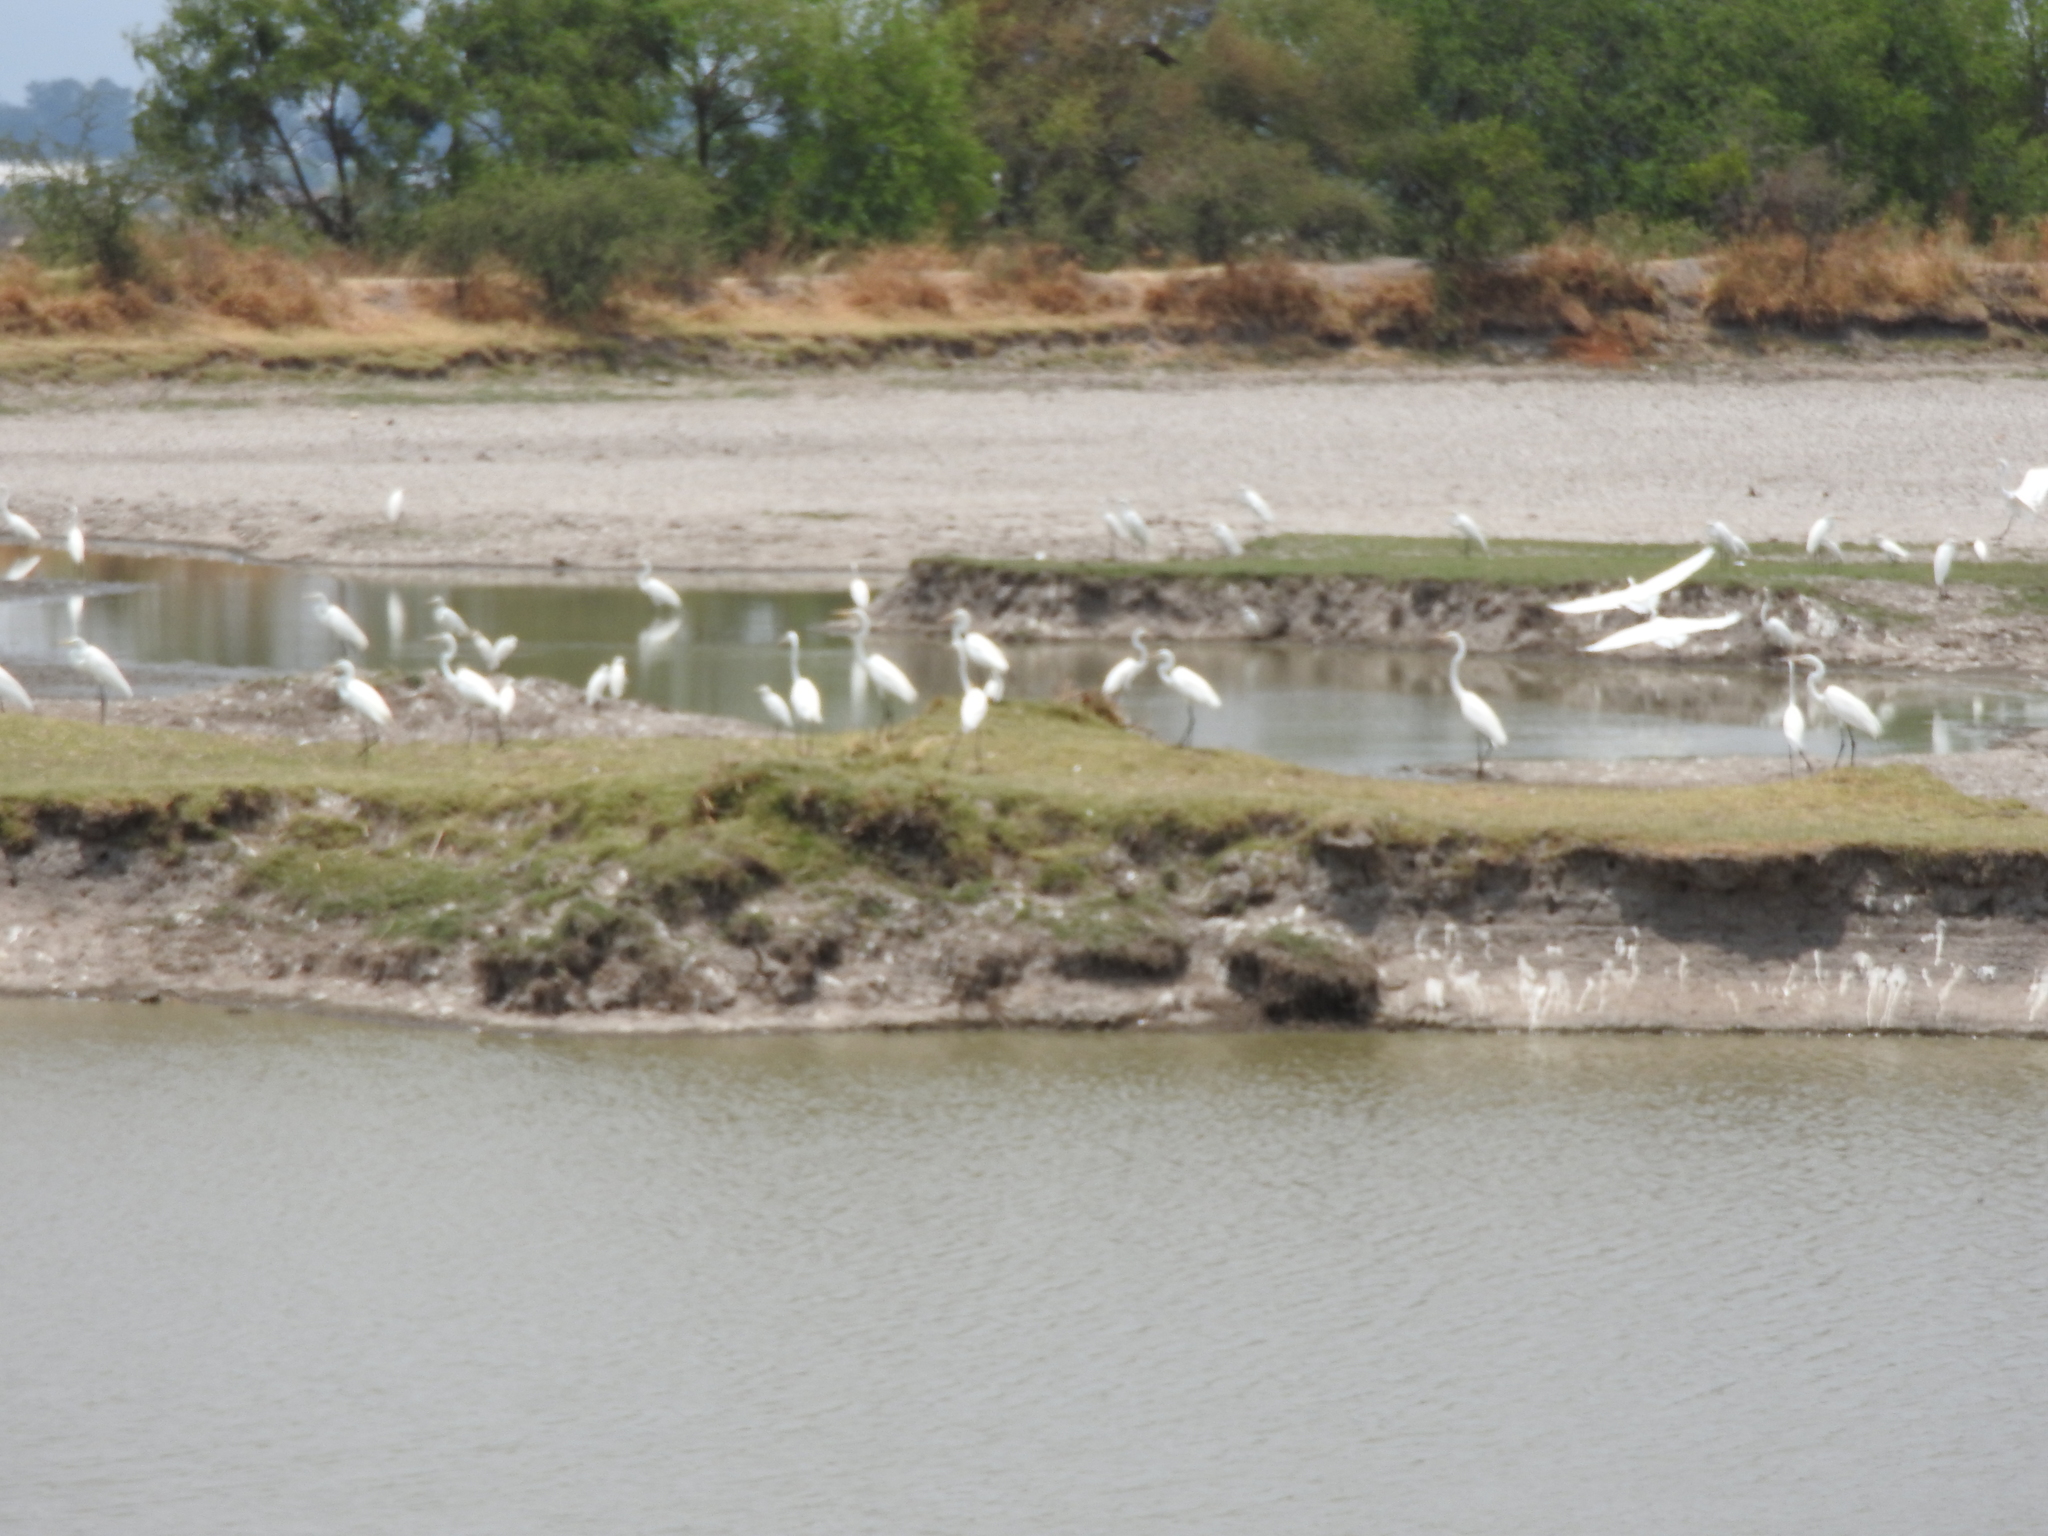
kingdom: Animalia
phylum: Chordata
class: Aves
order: Pelecaniformes
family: Ardeidae
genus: Egretta
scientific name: Egretta
